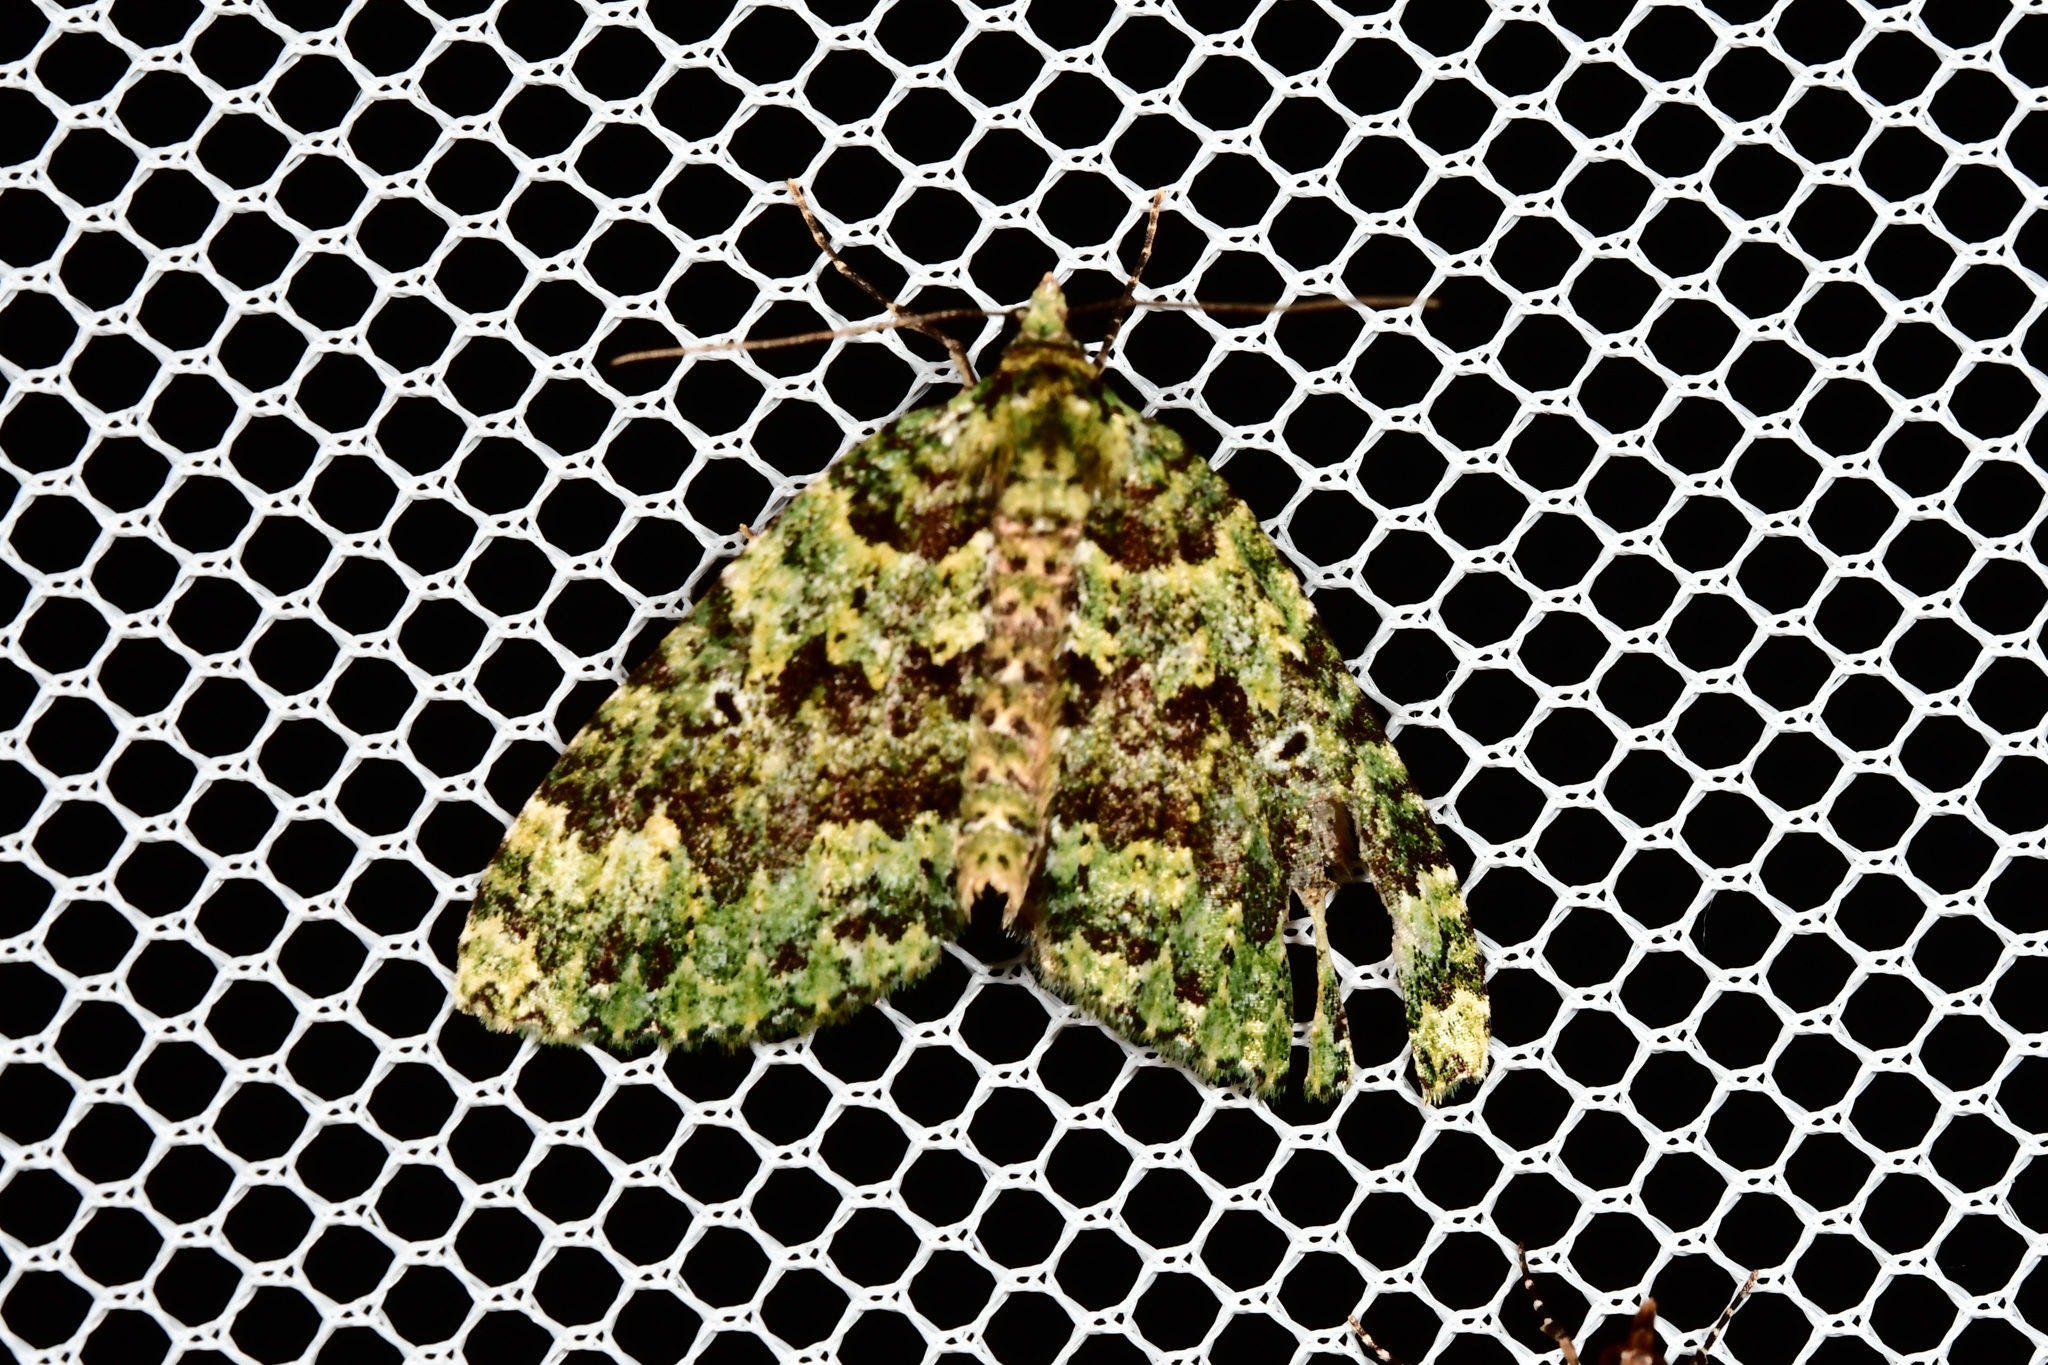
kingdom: Animalia
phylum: Arthropoda
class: Insecta
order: Lepidoptera
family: Geometridae
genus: Austrocidaria
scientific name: Austrocidaria callichlora
